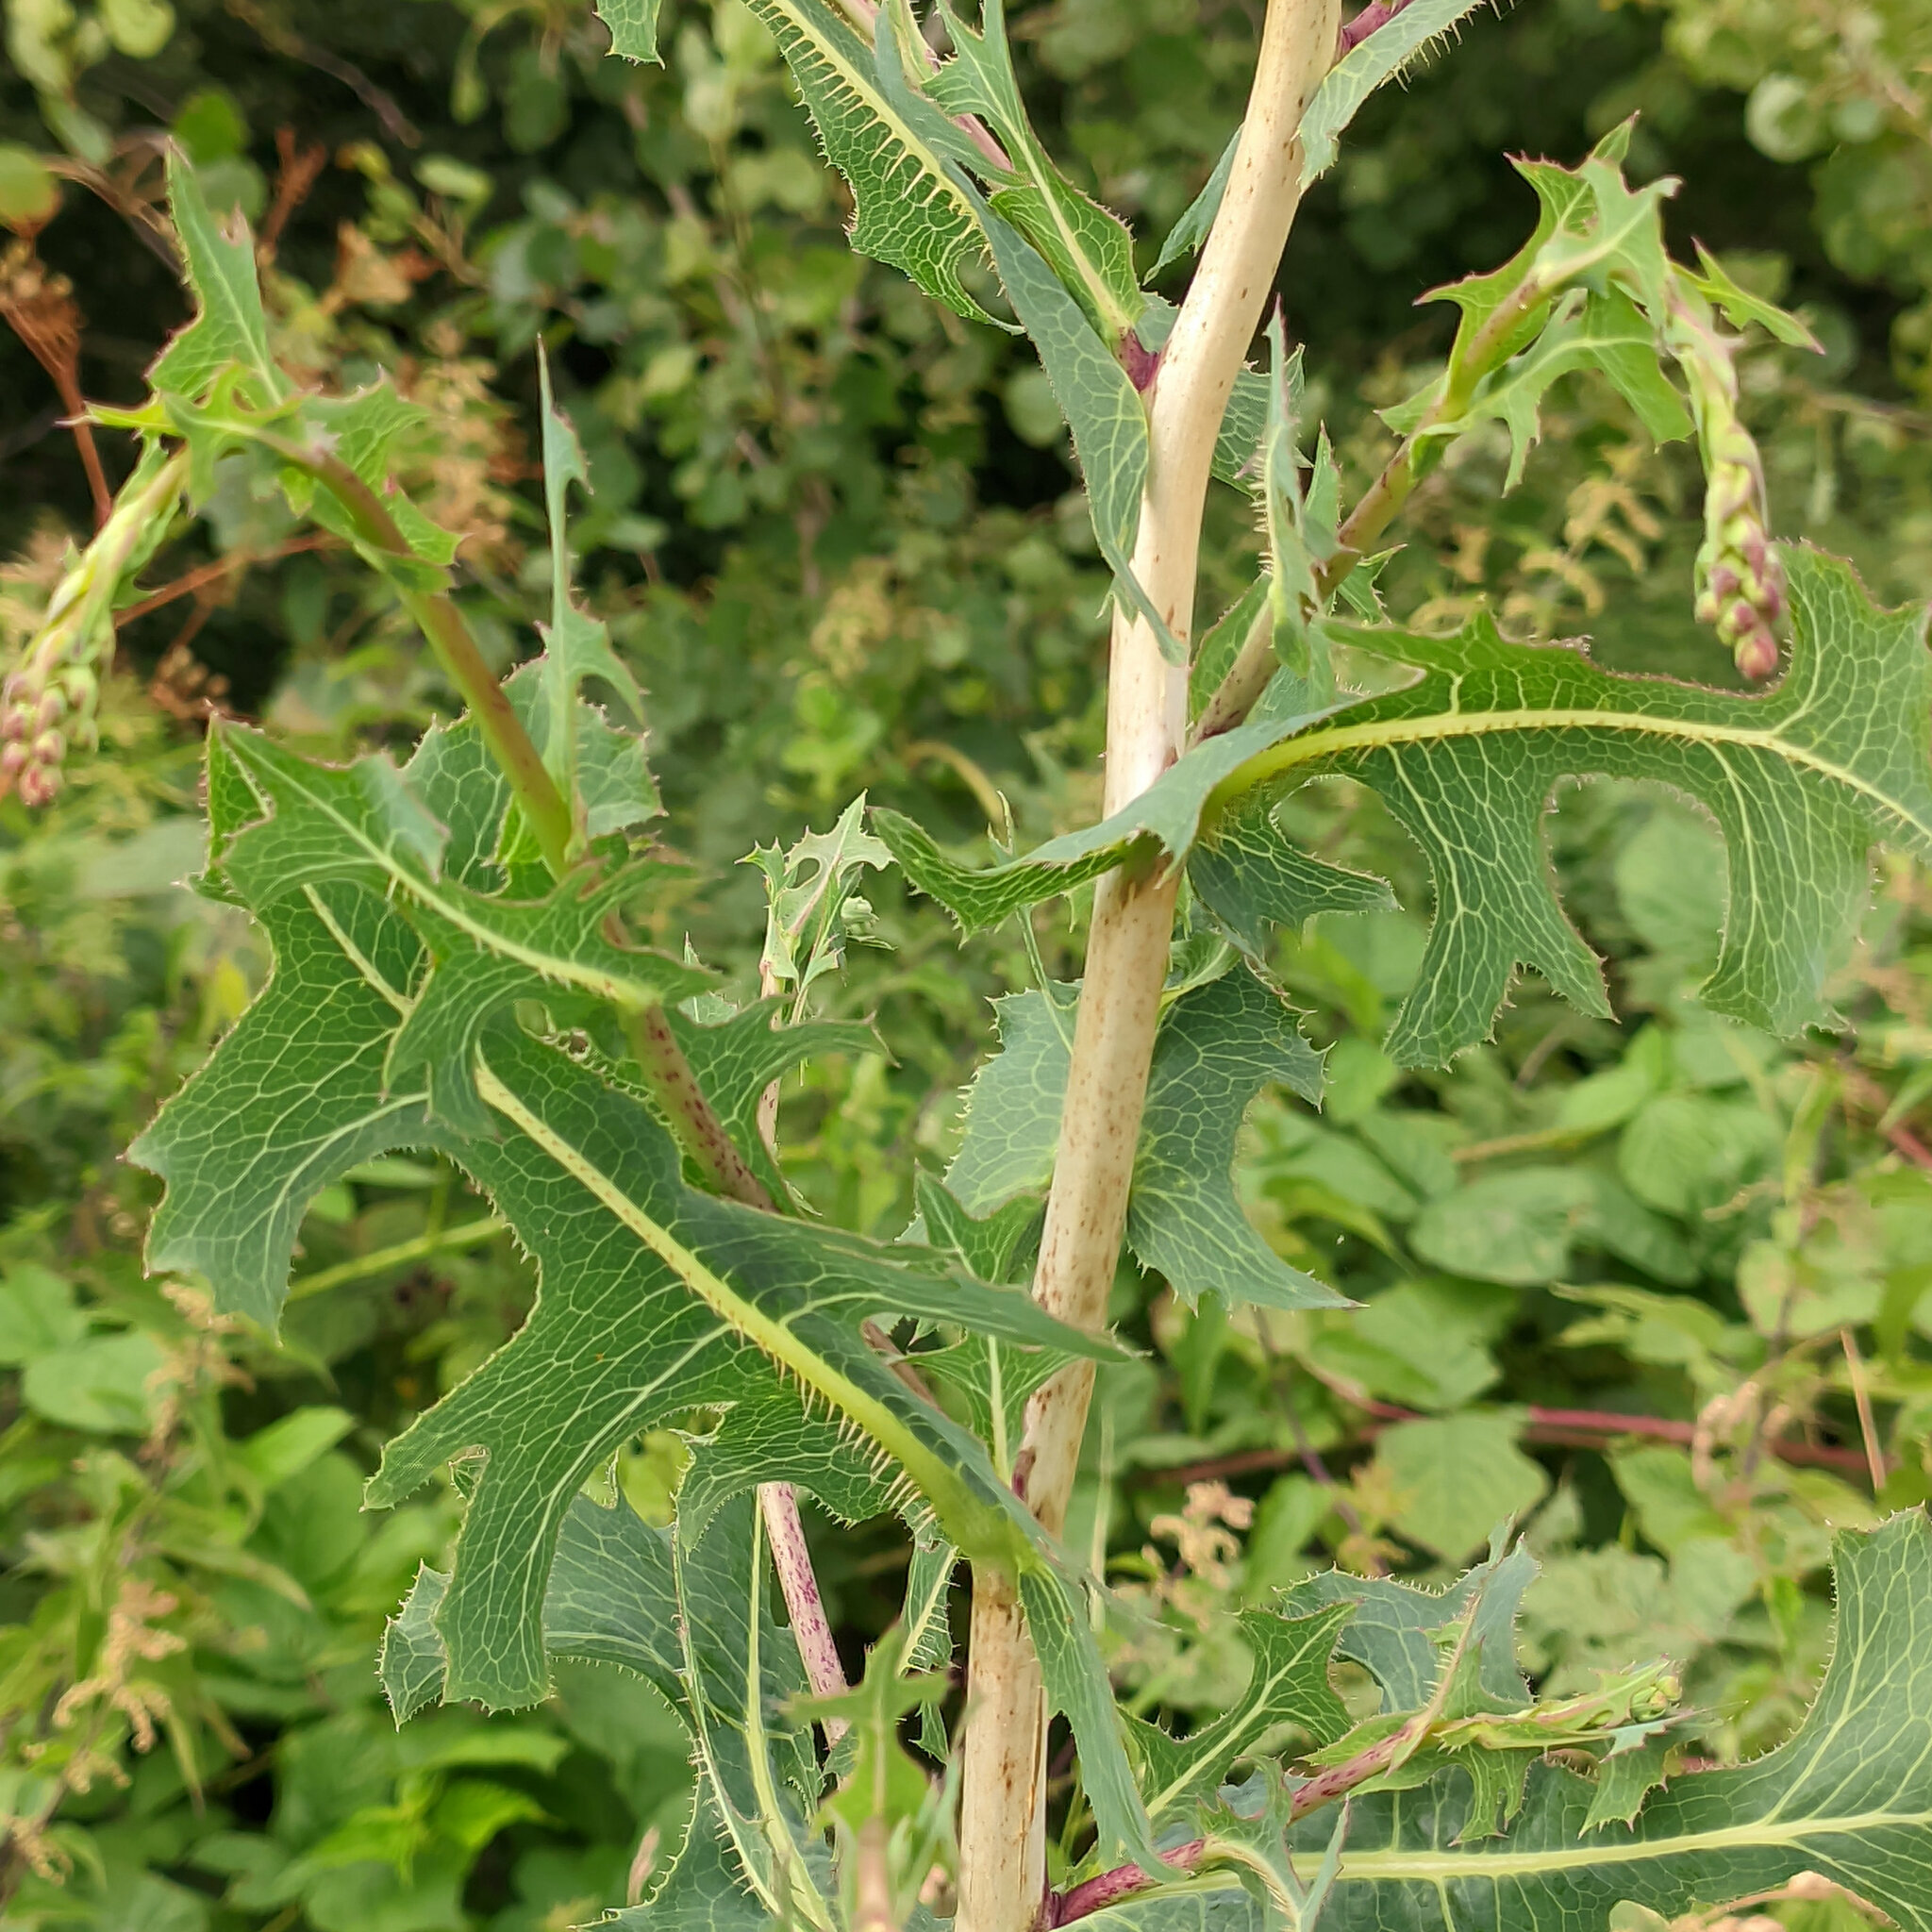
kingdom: Plantae
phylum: Tracheophyta
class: Magnoliopsida
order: Asterales
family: Asteraceae
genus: Lactuca
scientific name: Lactuca serriola
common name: Prickly lettuce
